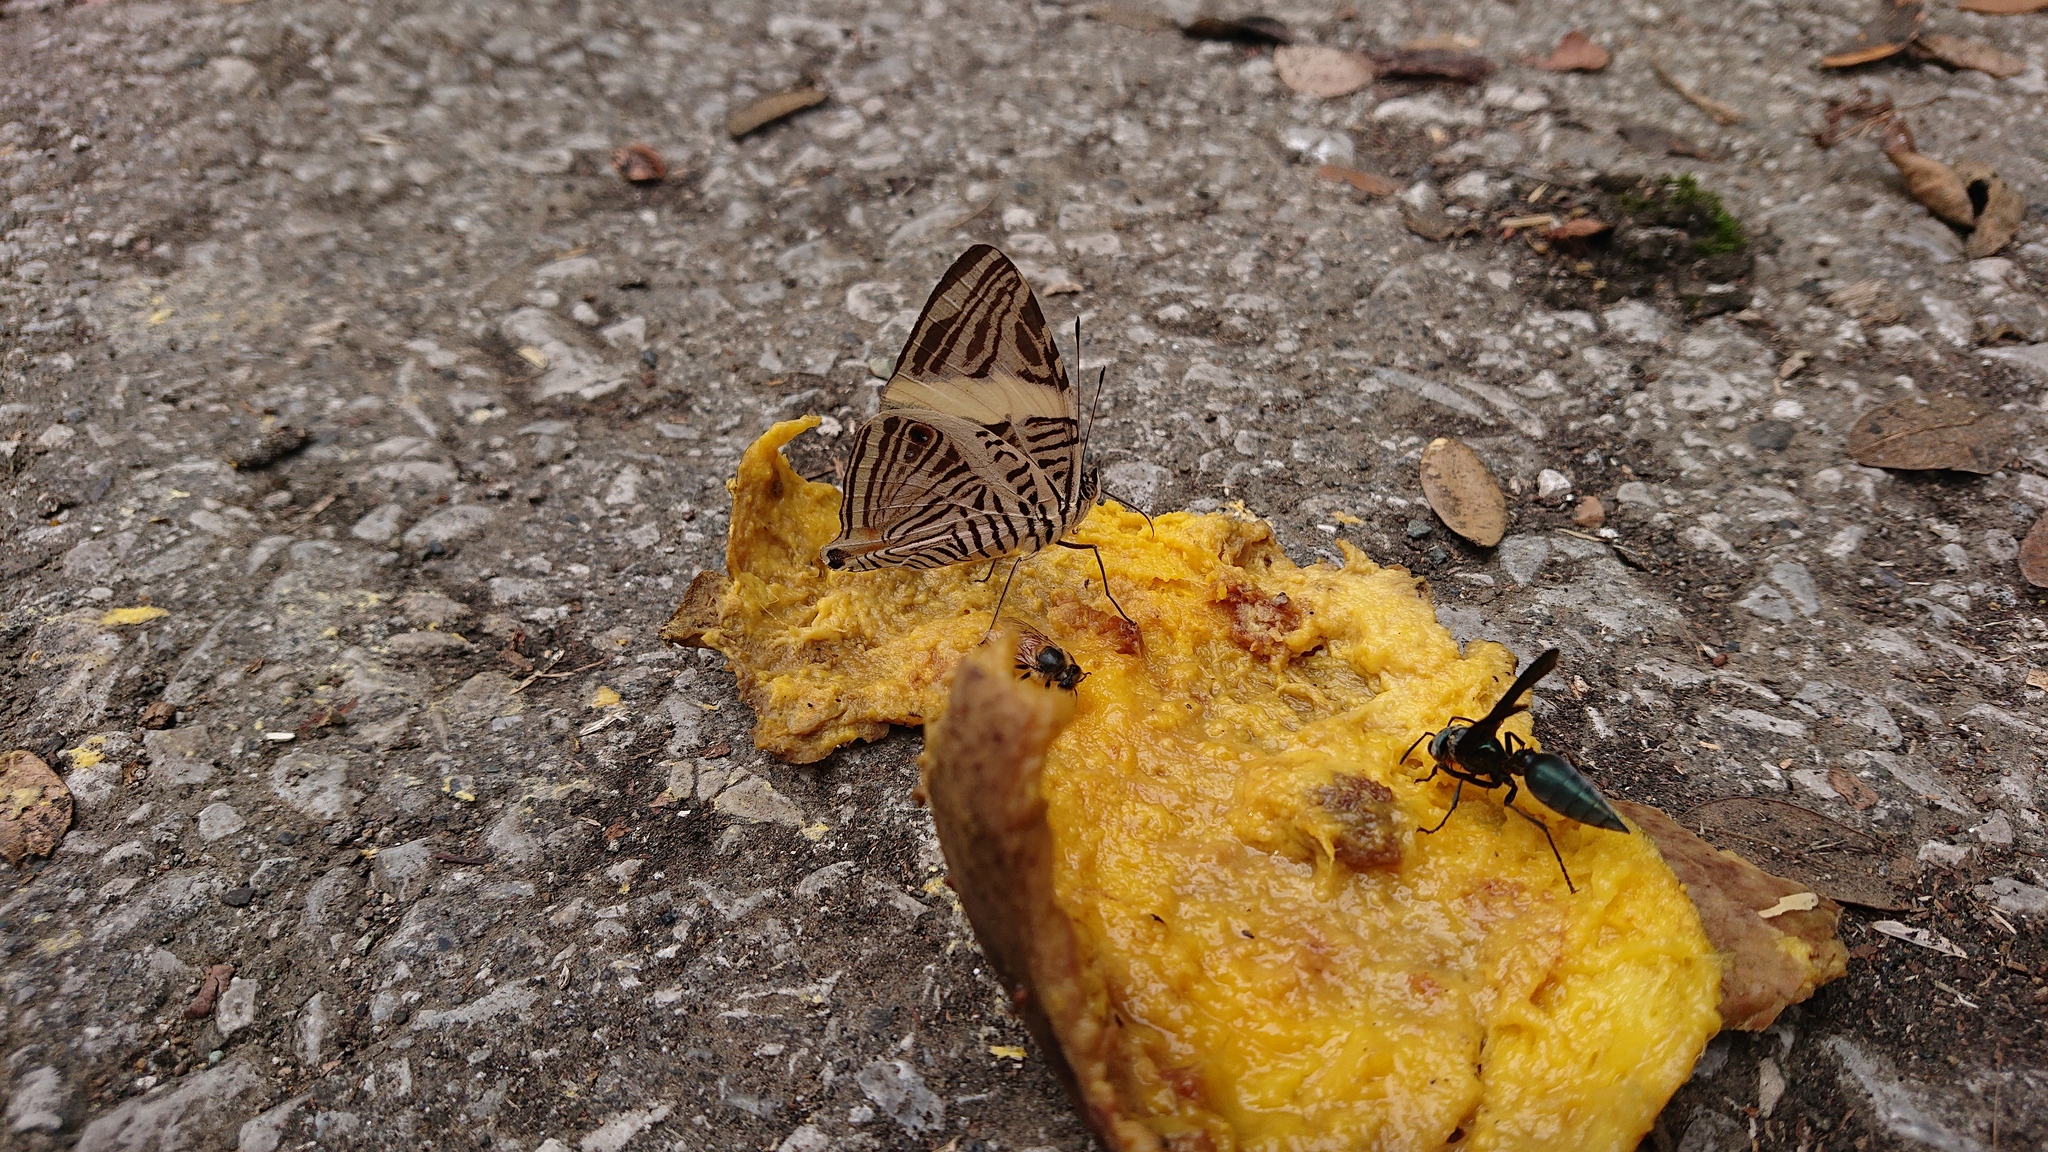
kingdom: Animalia
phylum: Arthropoda
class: Insecta
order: Lepidoptera
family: Nymphalidae
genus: Colobura
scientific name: Colobura dirce
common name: Dirce beauty
